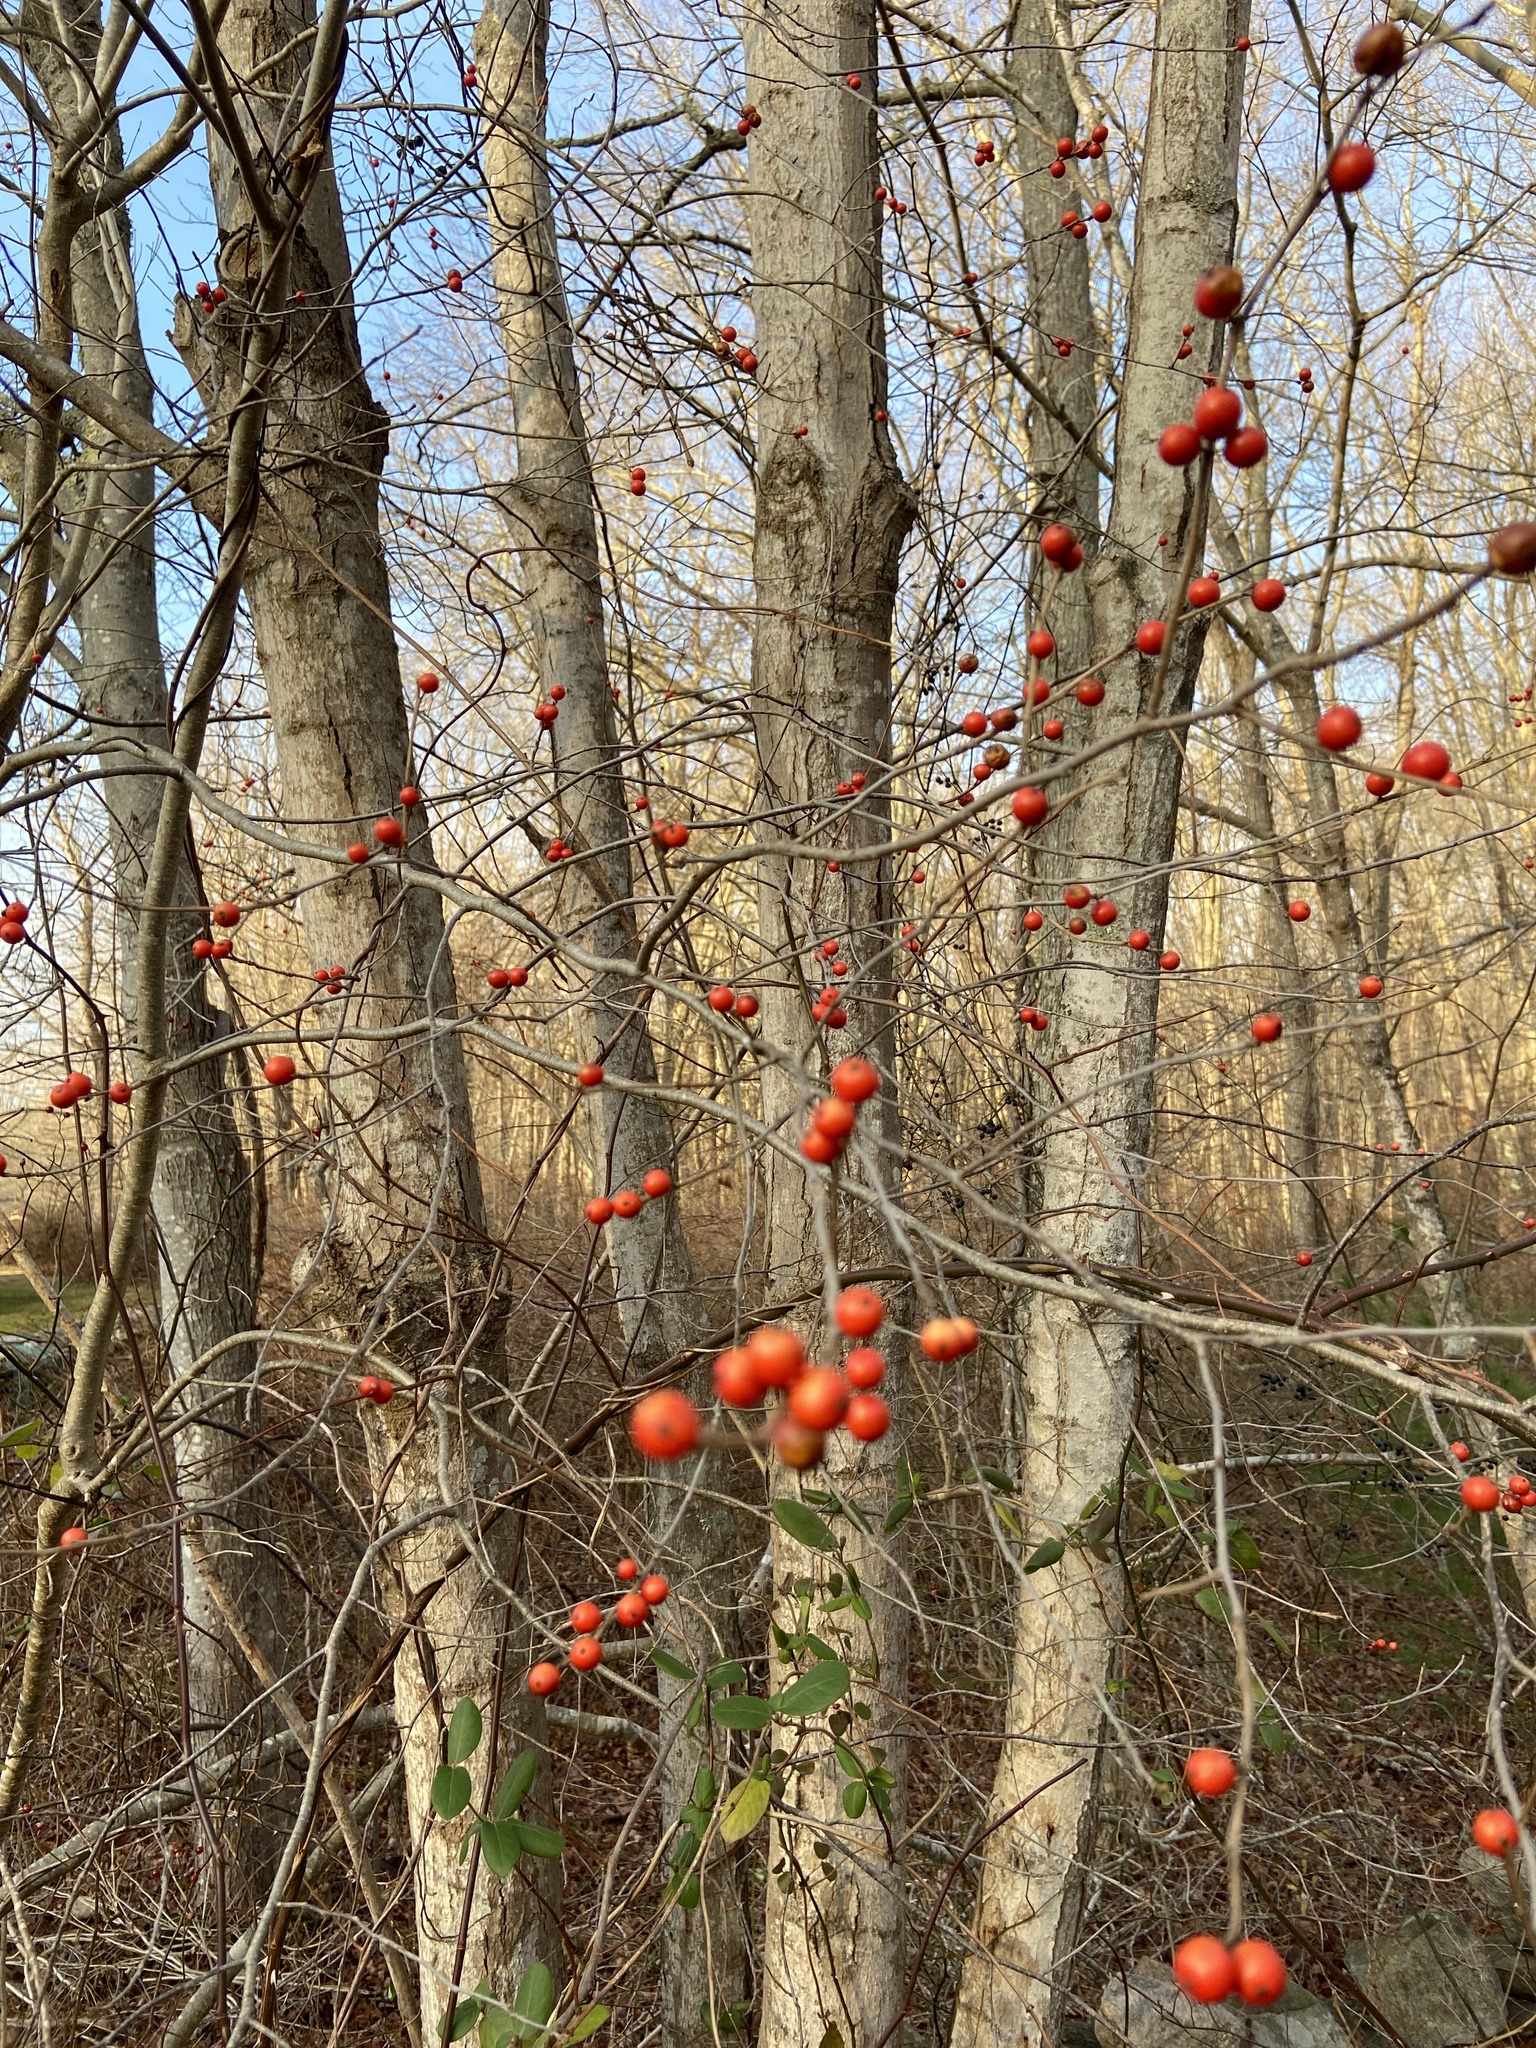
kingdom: Plantae
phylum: Tracheophyta
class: Magnoliopsida
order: Aquifoliales
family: Aquifoliaceae
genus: Ilex
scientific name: Ilex verticillata
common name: Virginia winterberry
